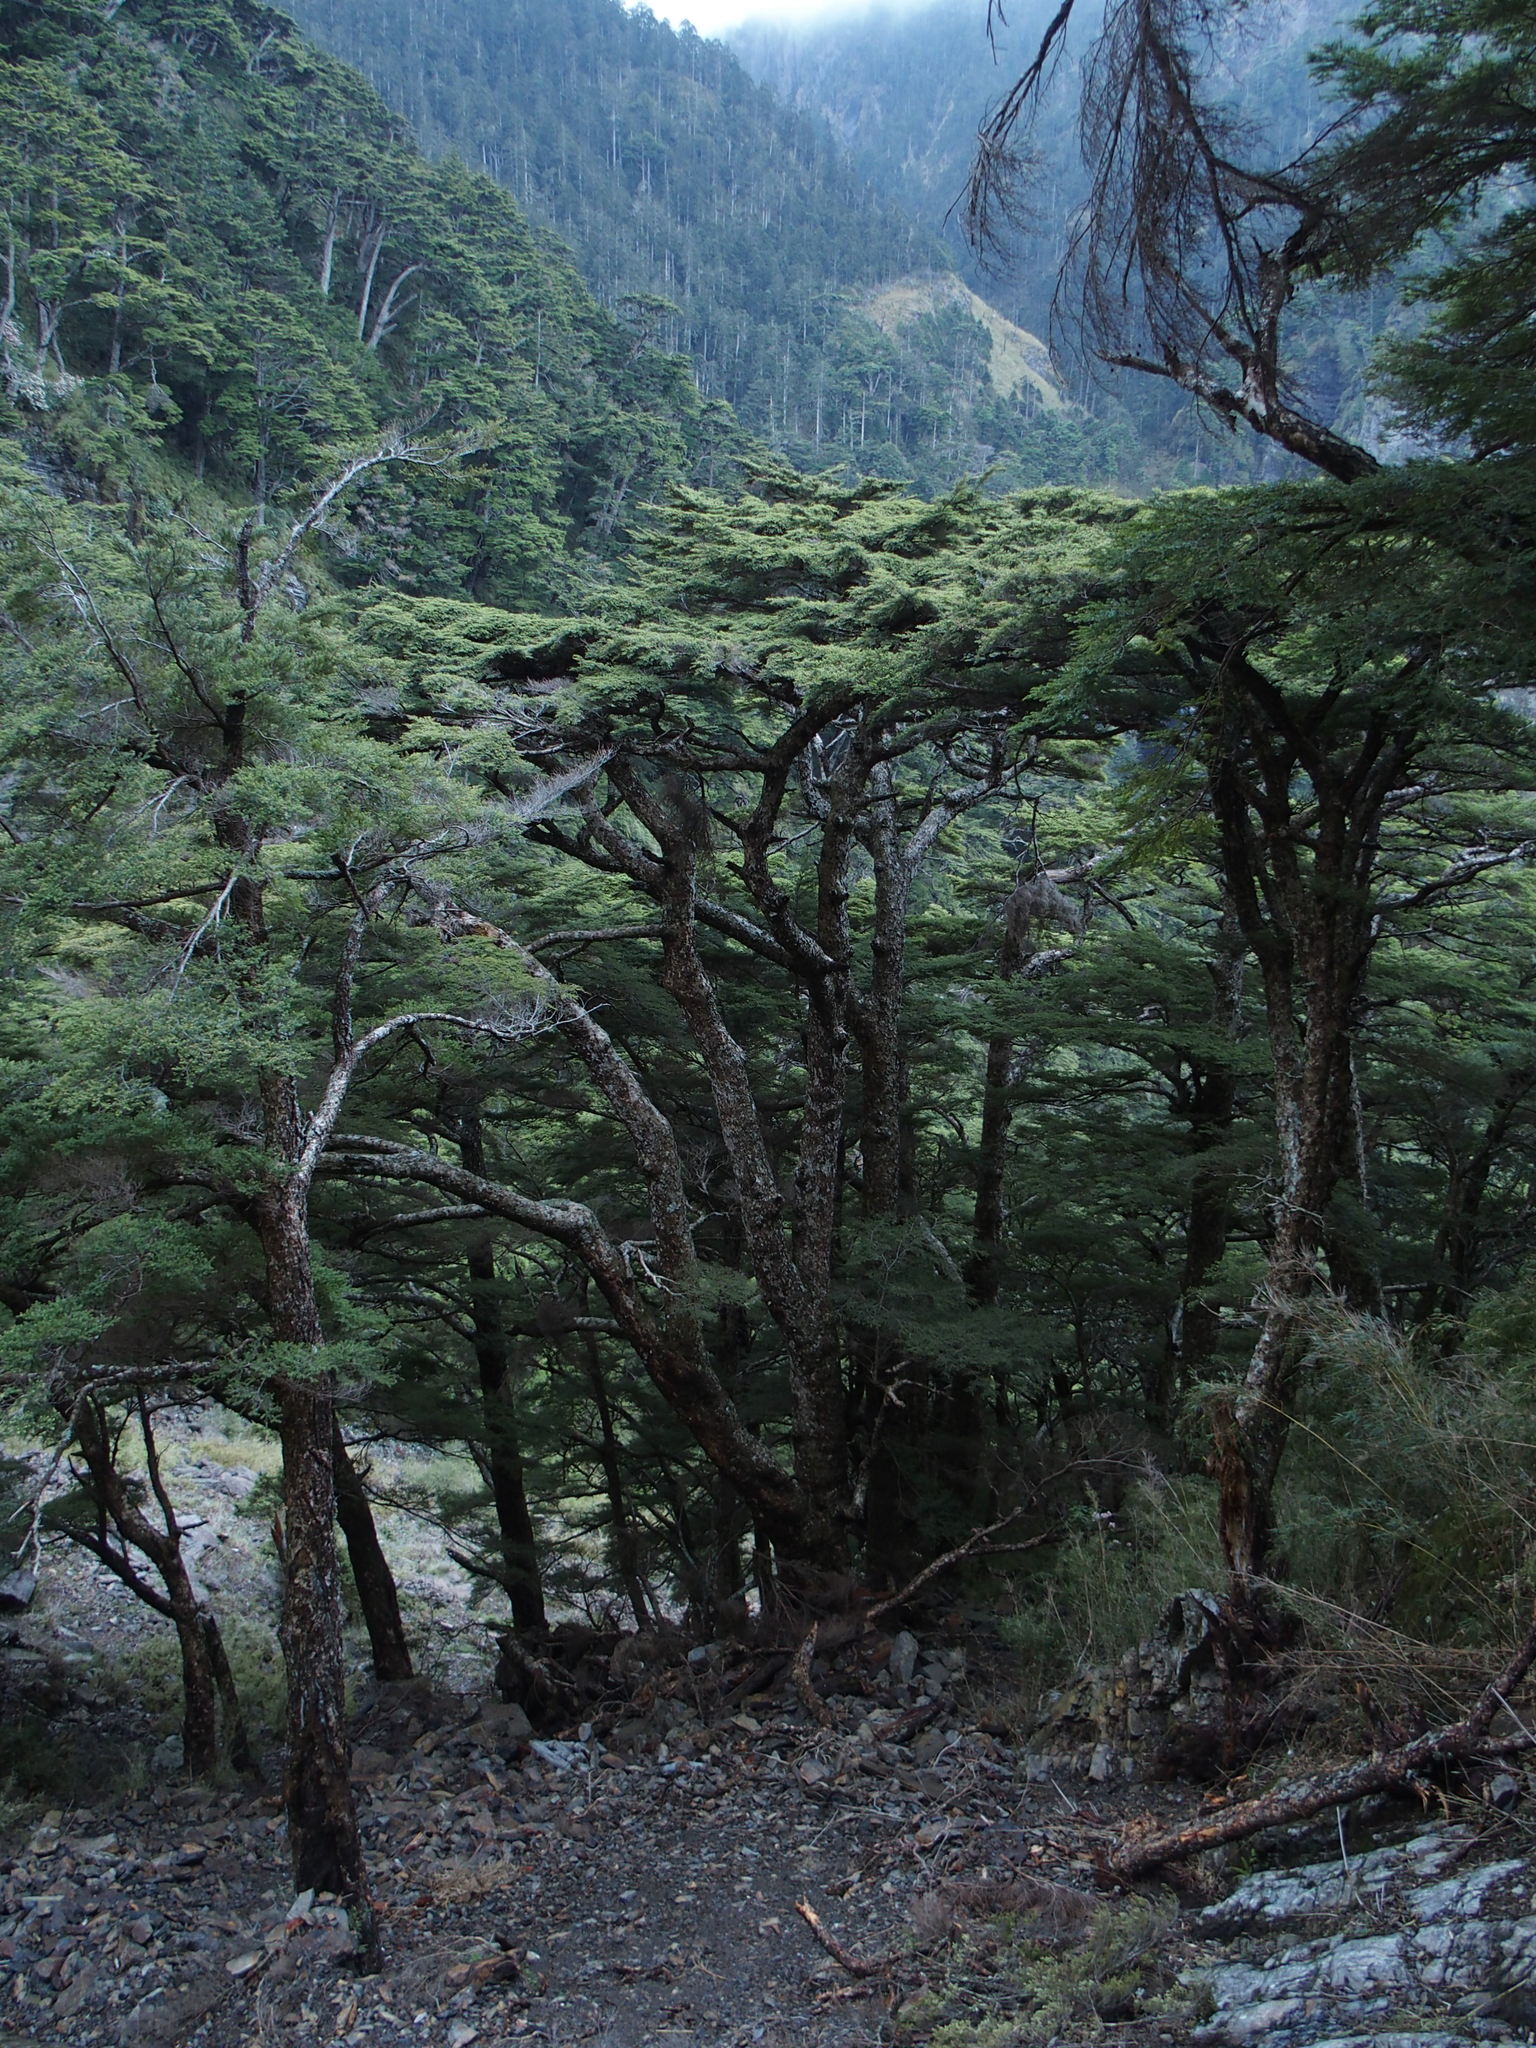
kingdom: Plantae
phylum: Tracheophyta
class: Pinopsida
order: Pinales
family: Pinaceae
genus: Tsuga
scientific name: Tsuga chinensis
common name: Chinese hemlock
